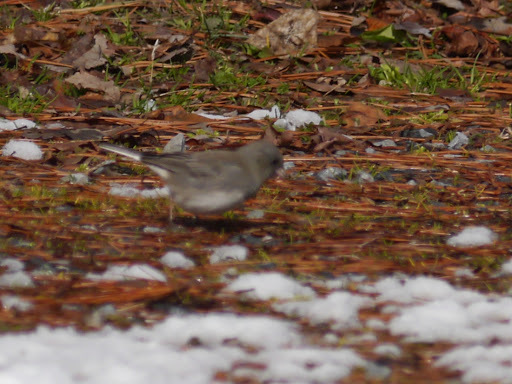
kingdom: Animalia
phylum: Chordata
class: Aves
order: Passeriformes
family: Passerellidae
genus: Junco
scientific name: Junco hyemalis
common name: Dark-eyed junco
